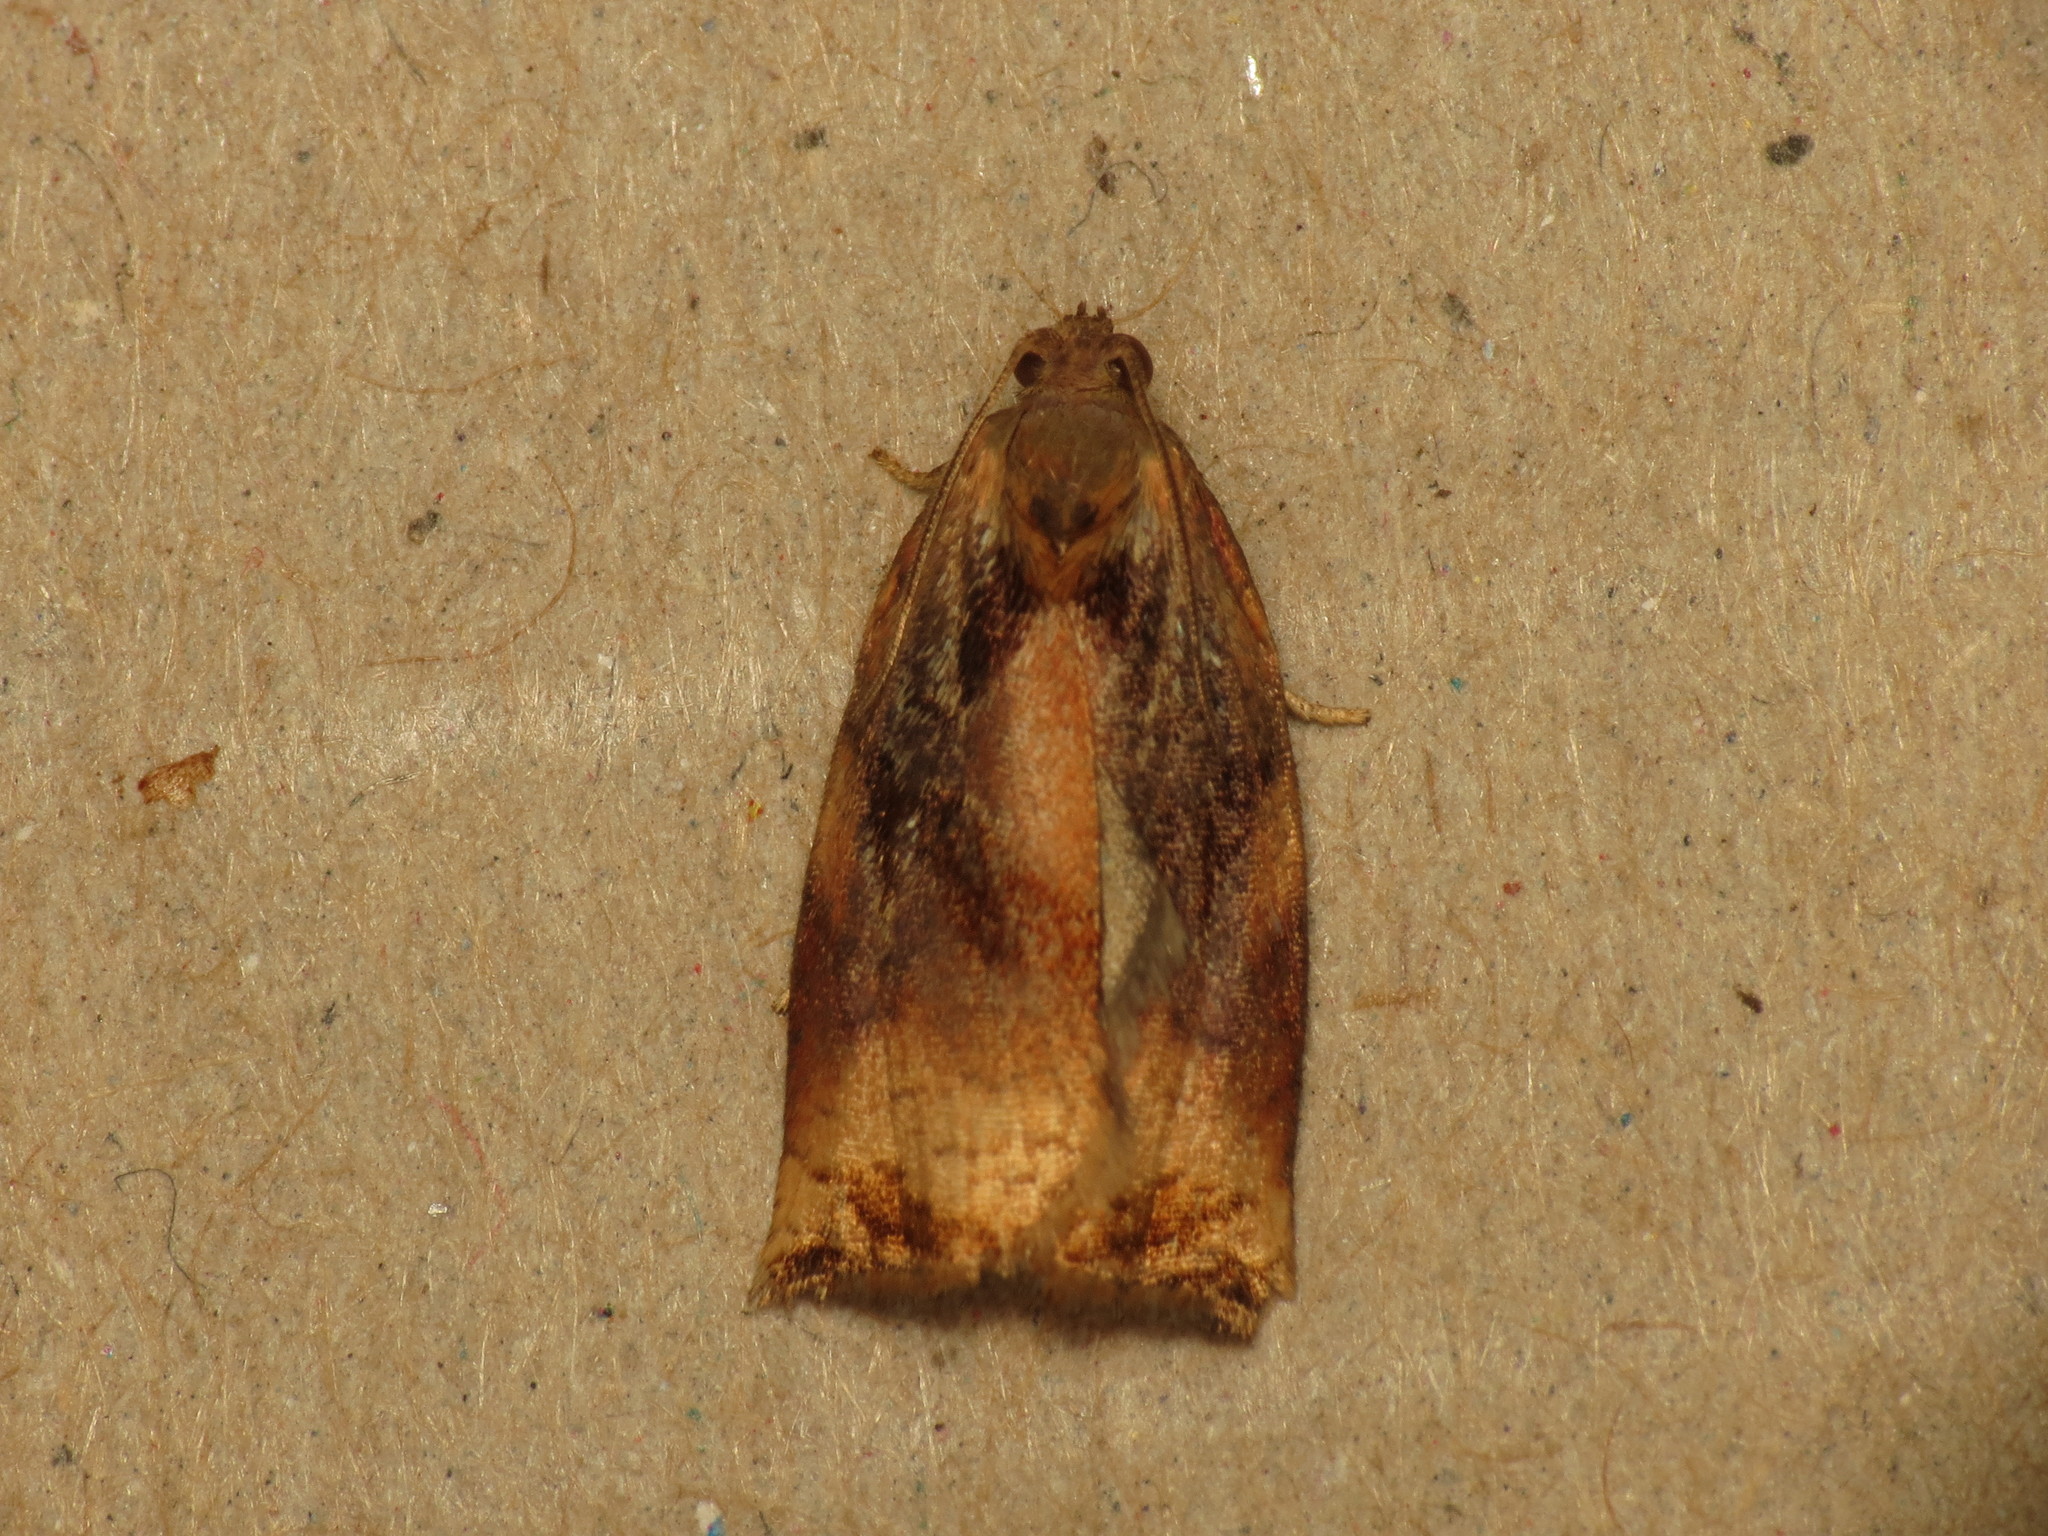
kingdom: Animalia
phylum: Arthropoda
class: Insecta
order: Lepidoptera
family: Tortricidae
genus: Archips
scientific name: Archips podana
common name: Large fruit-tree tortrix
